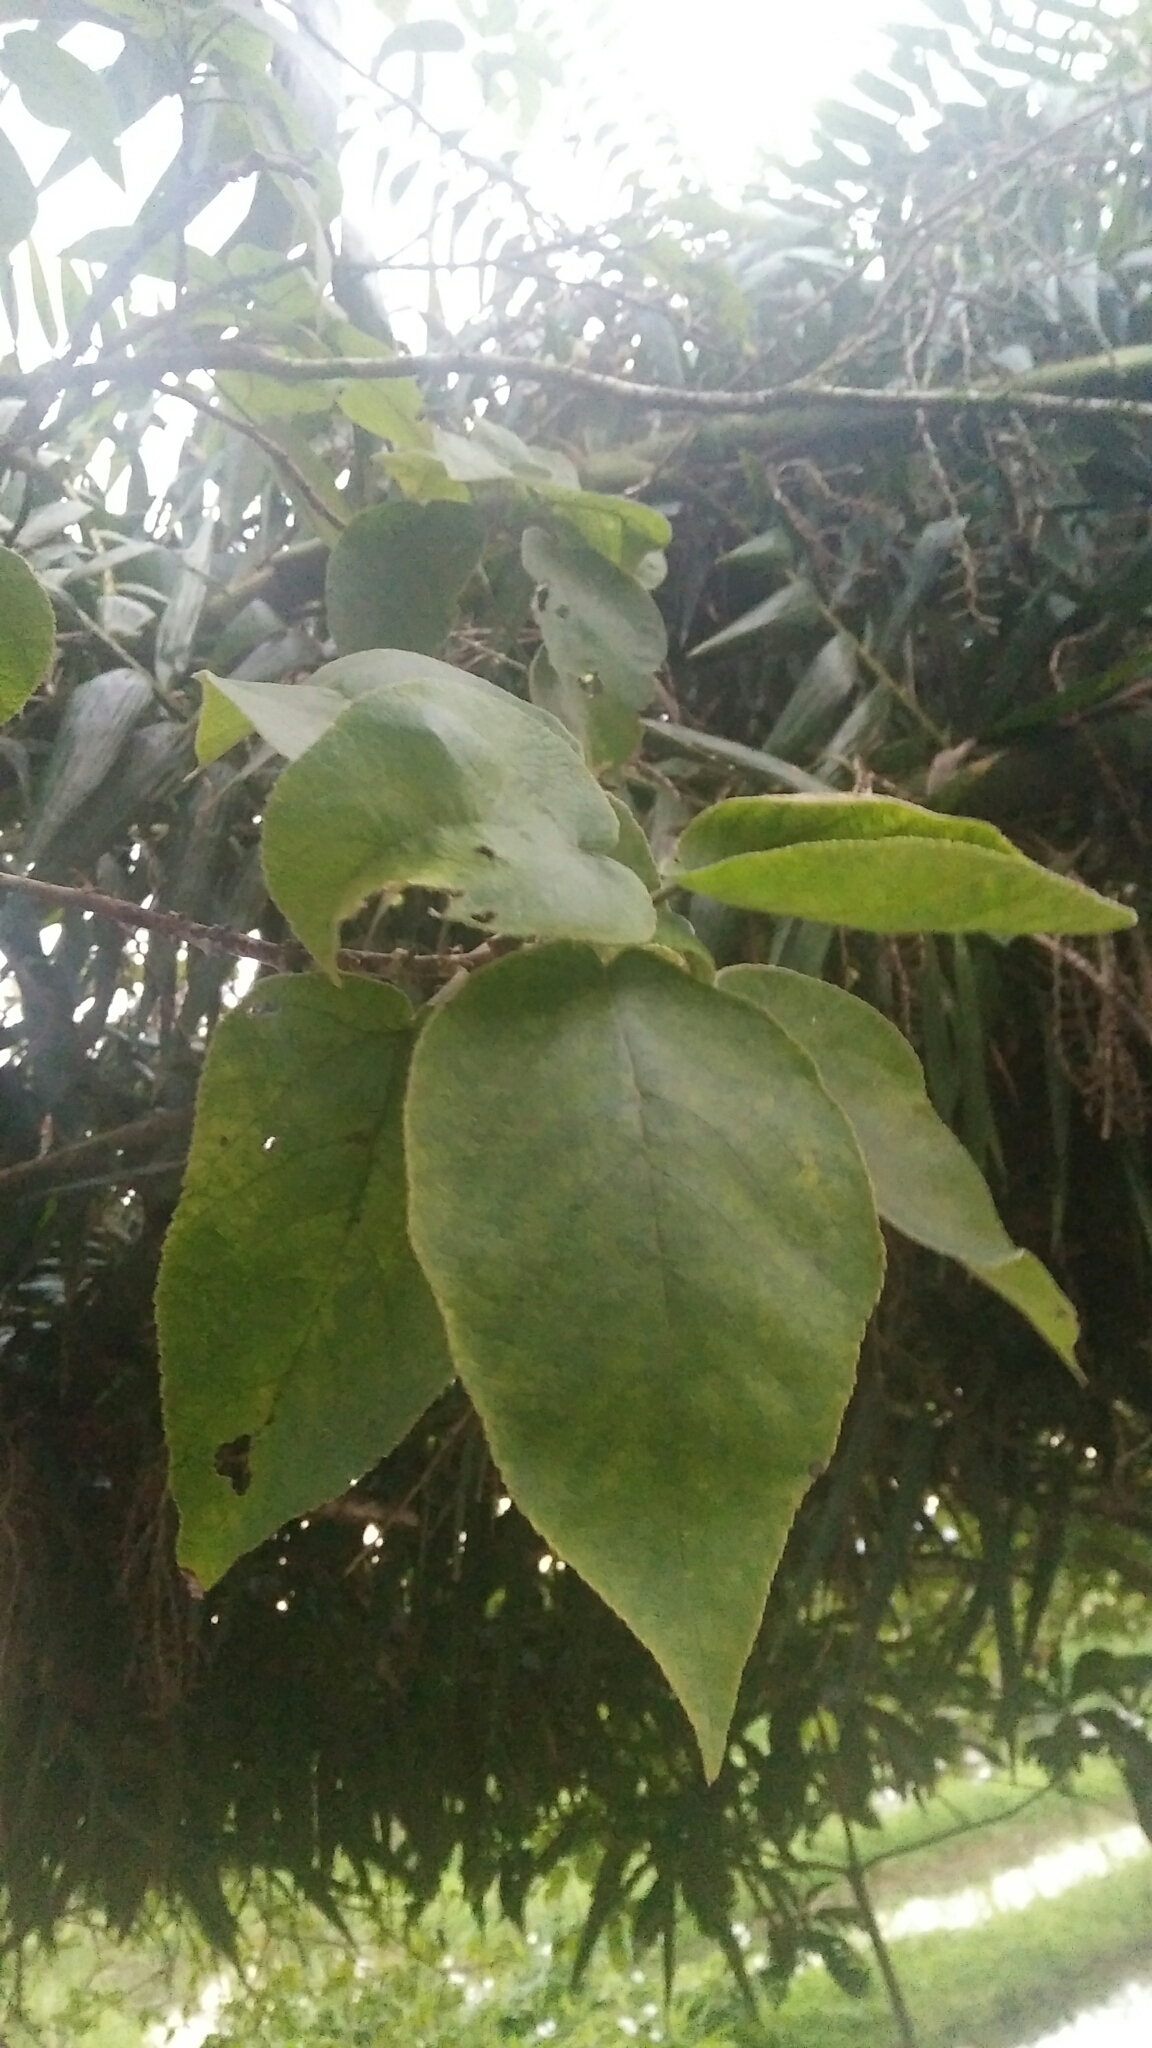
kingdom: Plantae
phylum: Tracheophyta
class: Magnoliopsida
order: Rosales
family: Moraceae
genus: Broussonetia
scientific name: Broussonetia papyrifera
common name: Paper mulberry
